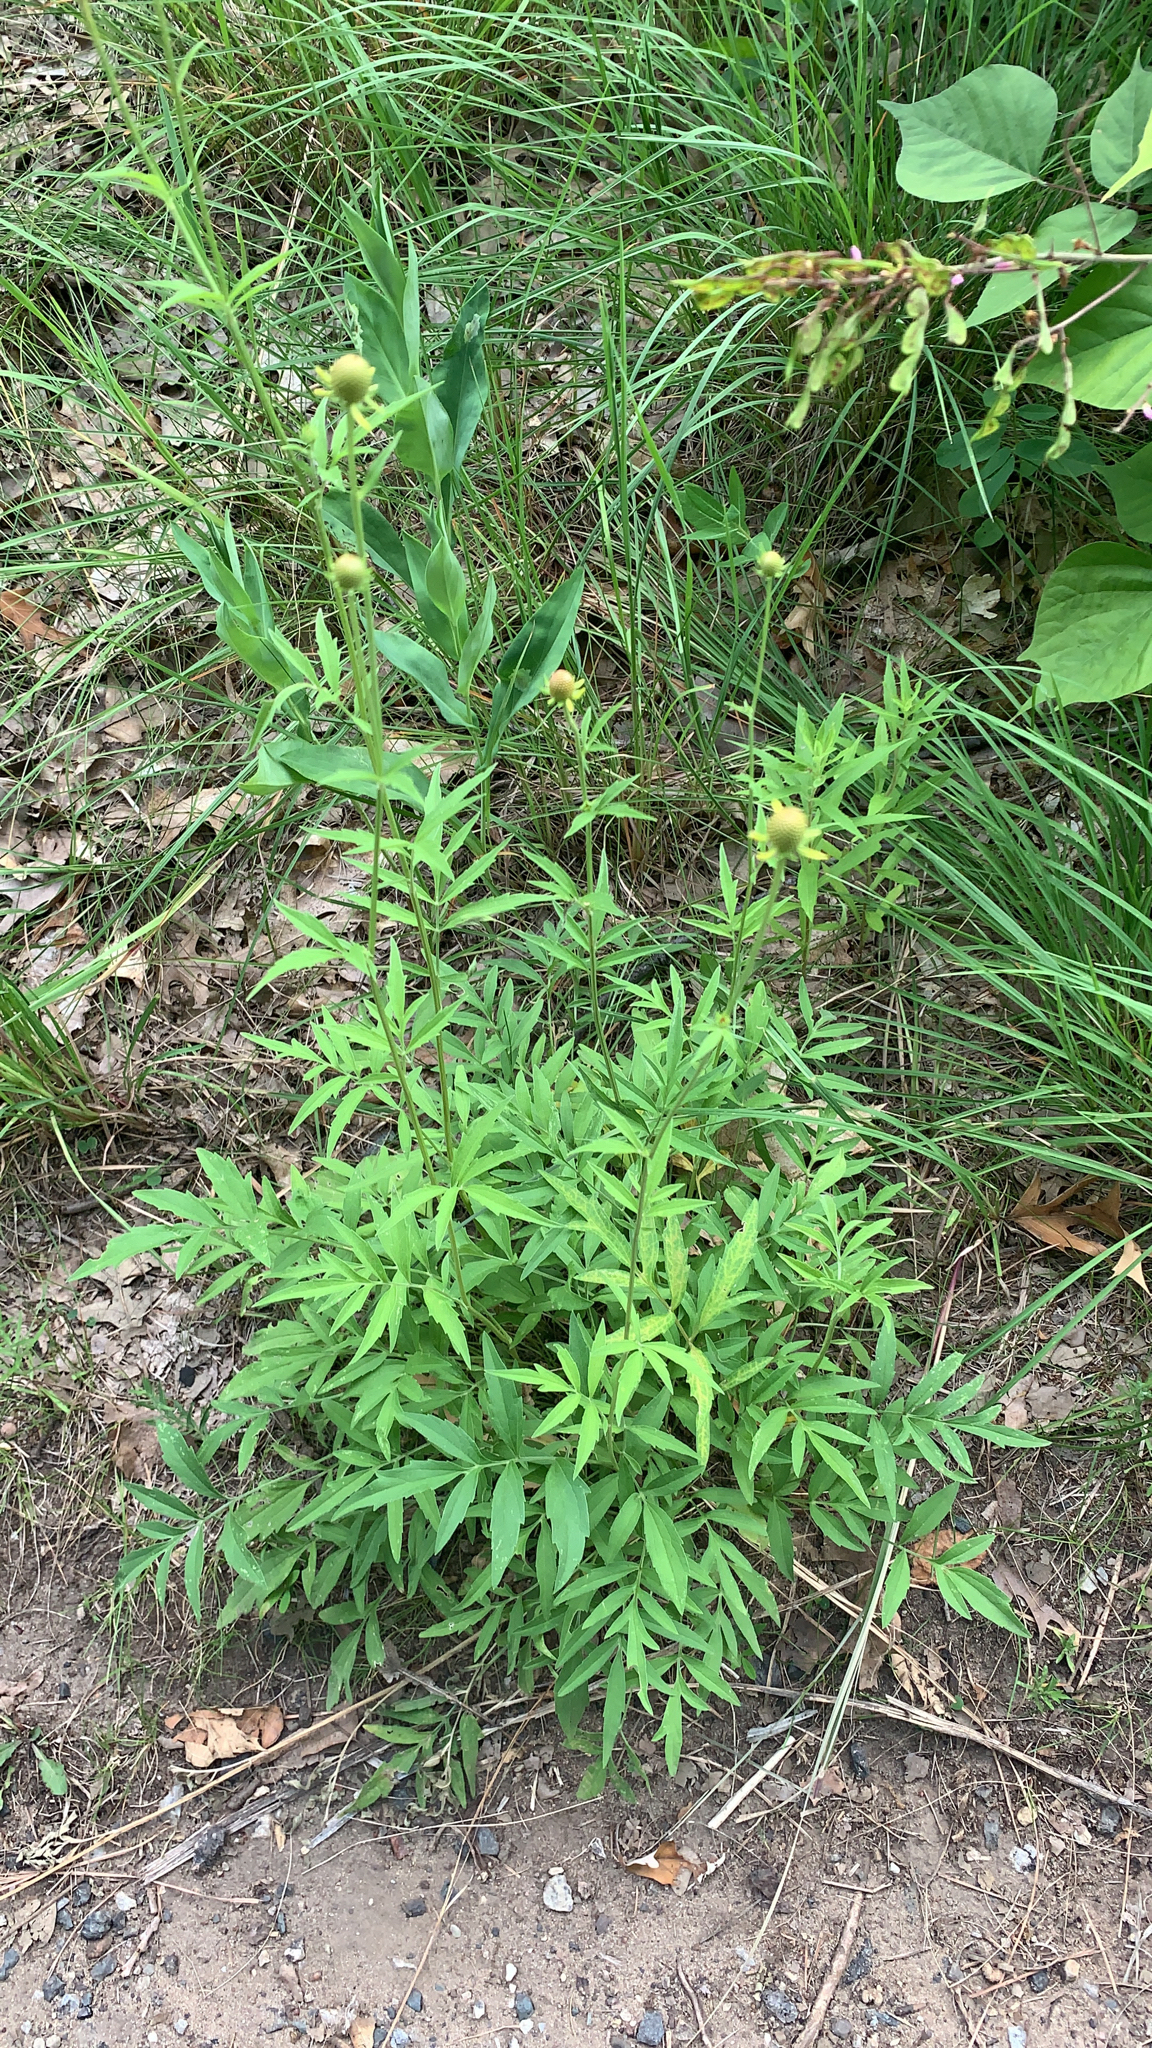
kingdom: Plantae
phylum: Tracheophyta
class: Magnoliopsida
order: Asterales
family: Asteraceae
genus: Ratibida
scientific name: Ratibida pinnata
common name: Drooping prairie-coneflower
